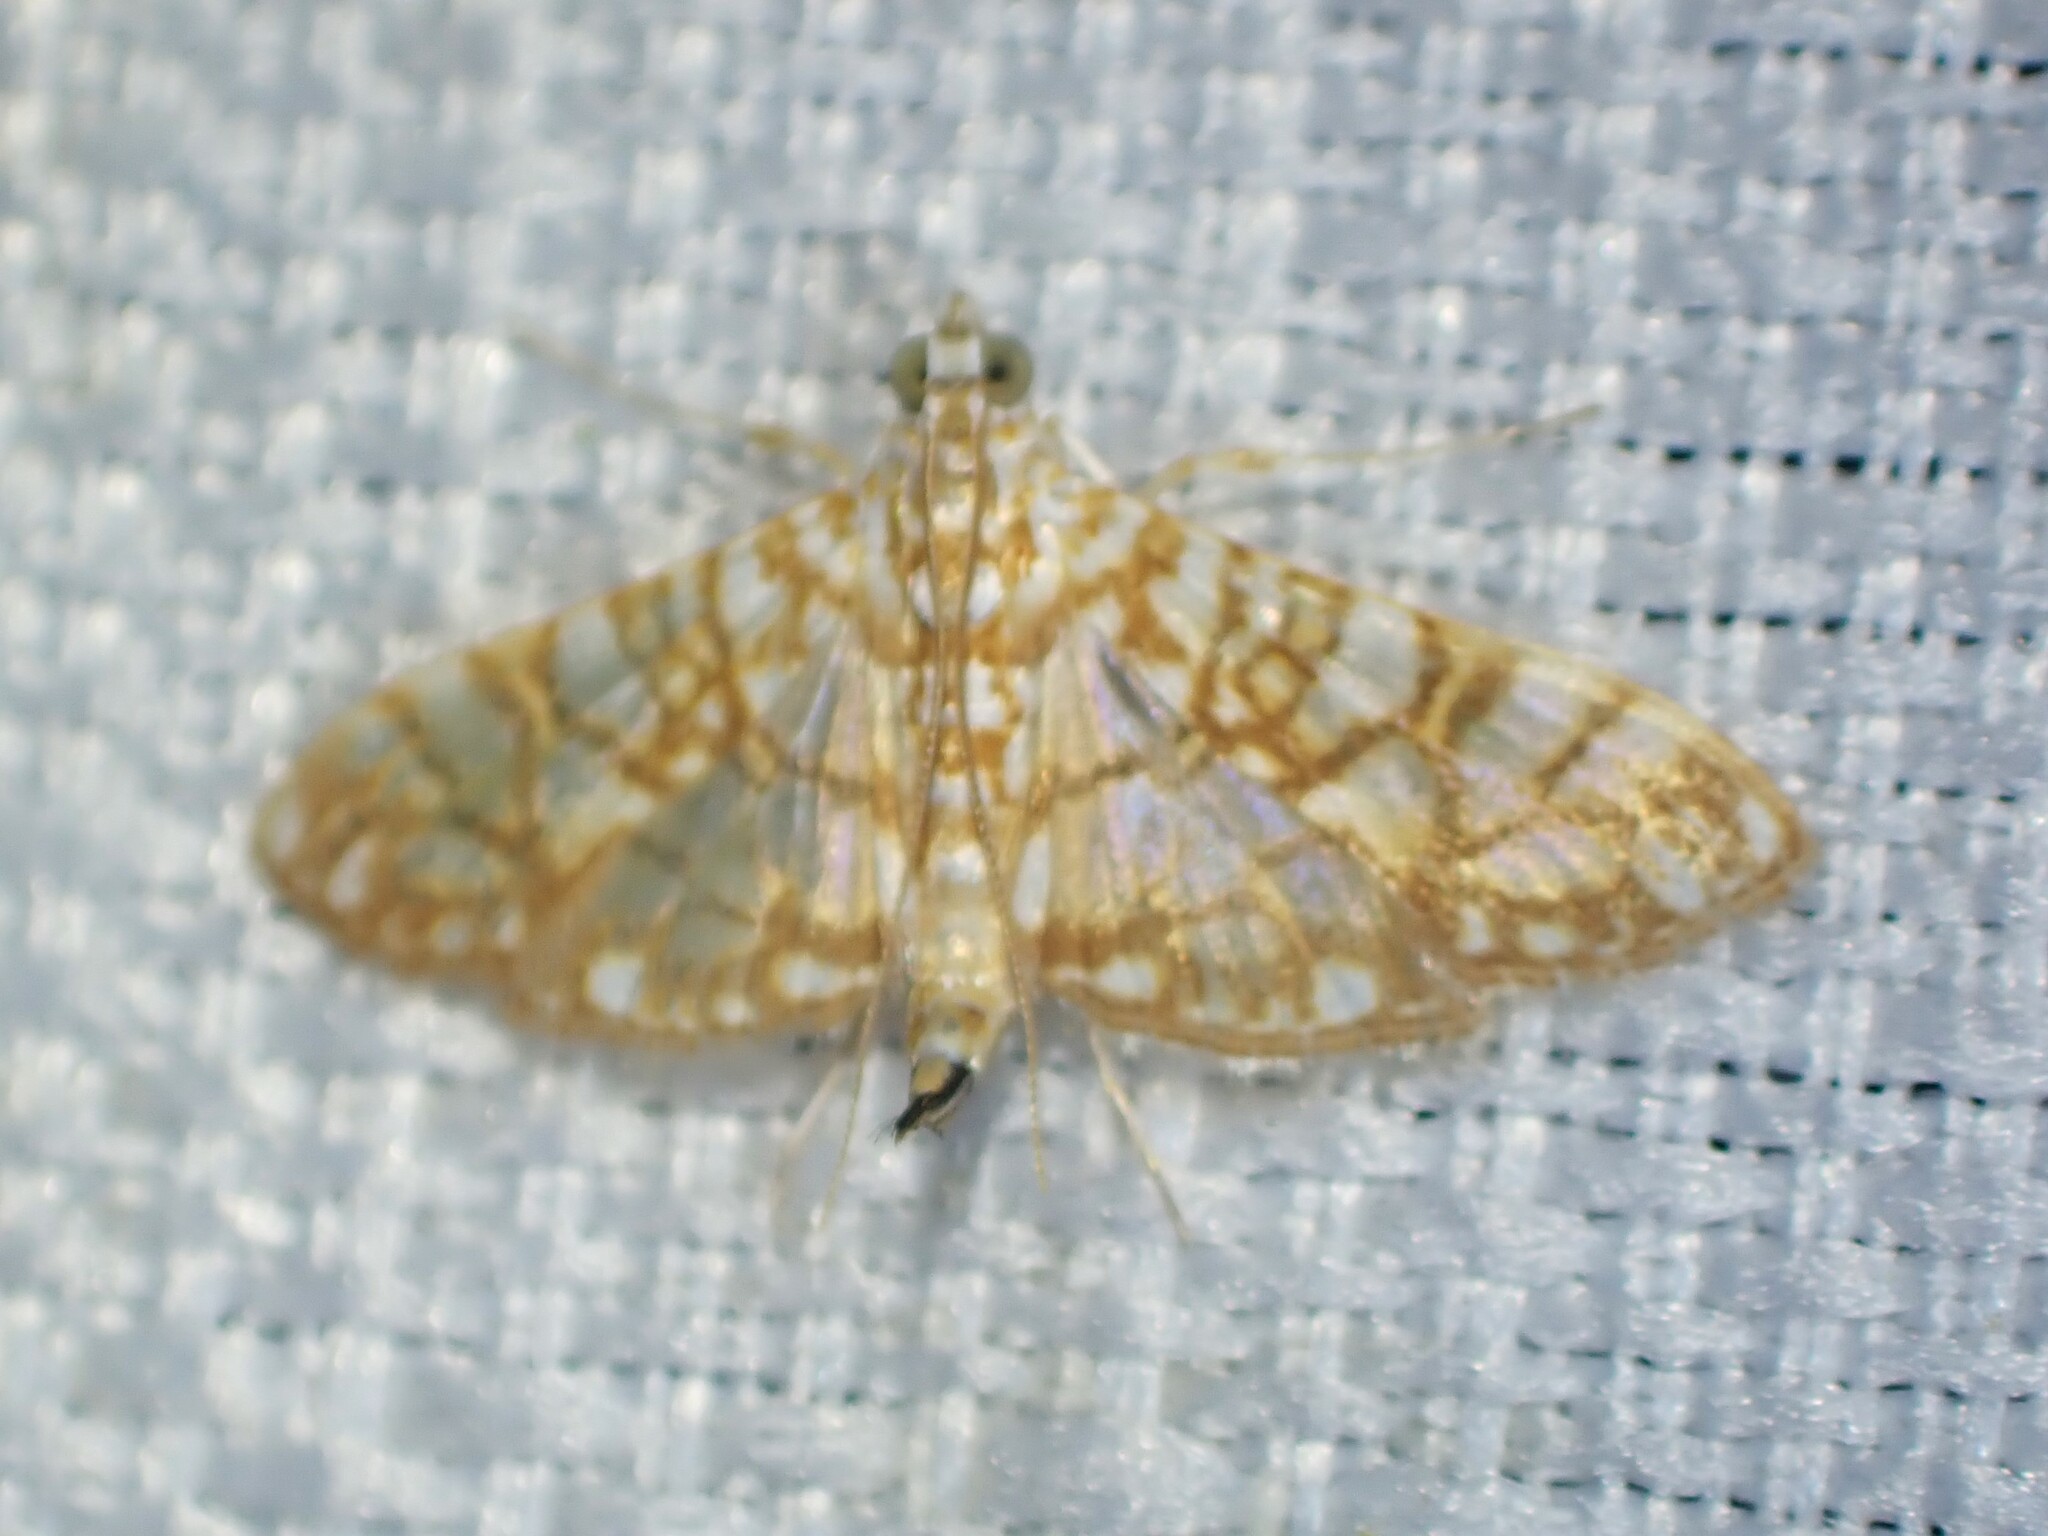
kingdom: Animalia
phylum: Arthropoda
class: Insecta
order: Lepidoptera
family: Crambidae
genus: Synclera
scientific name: Synclera traducalis
